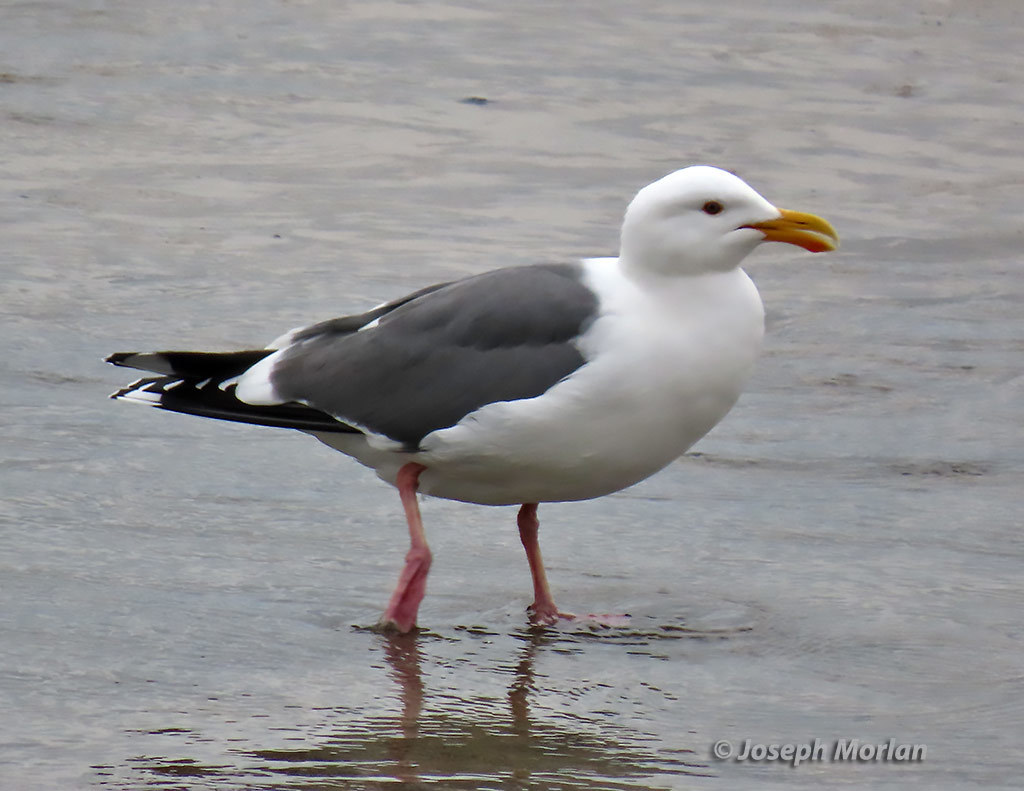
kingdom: Animalia
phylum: Chordata
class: Aves
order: Charadriiformes
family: Laridae
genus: Larus
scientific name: Larus occidentalis
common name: Western gull
